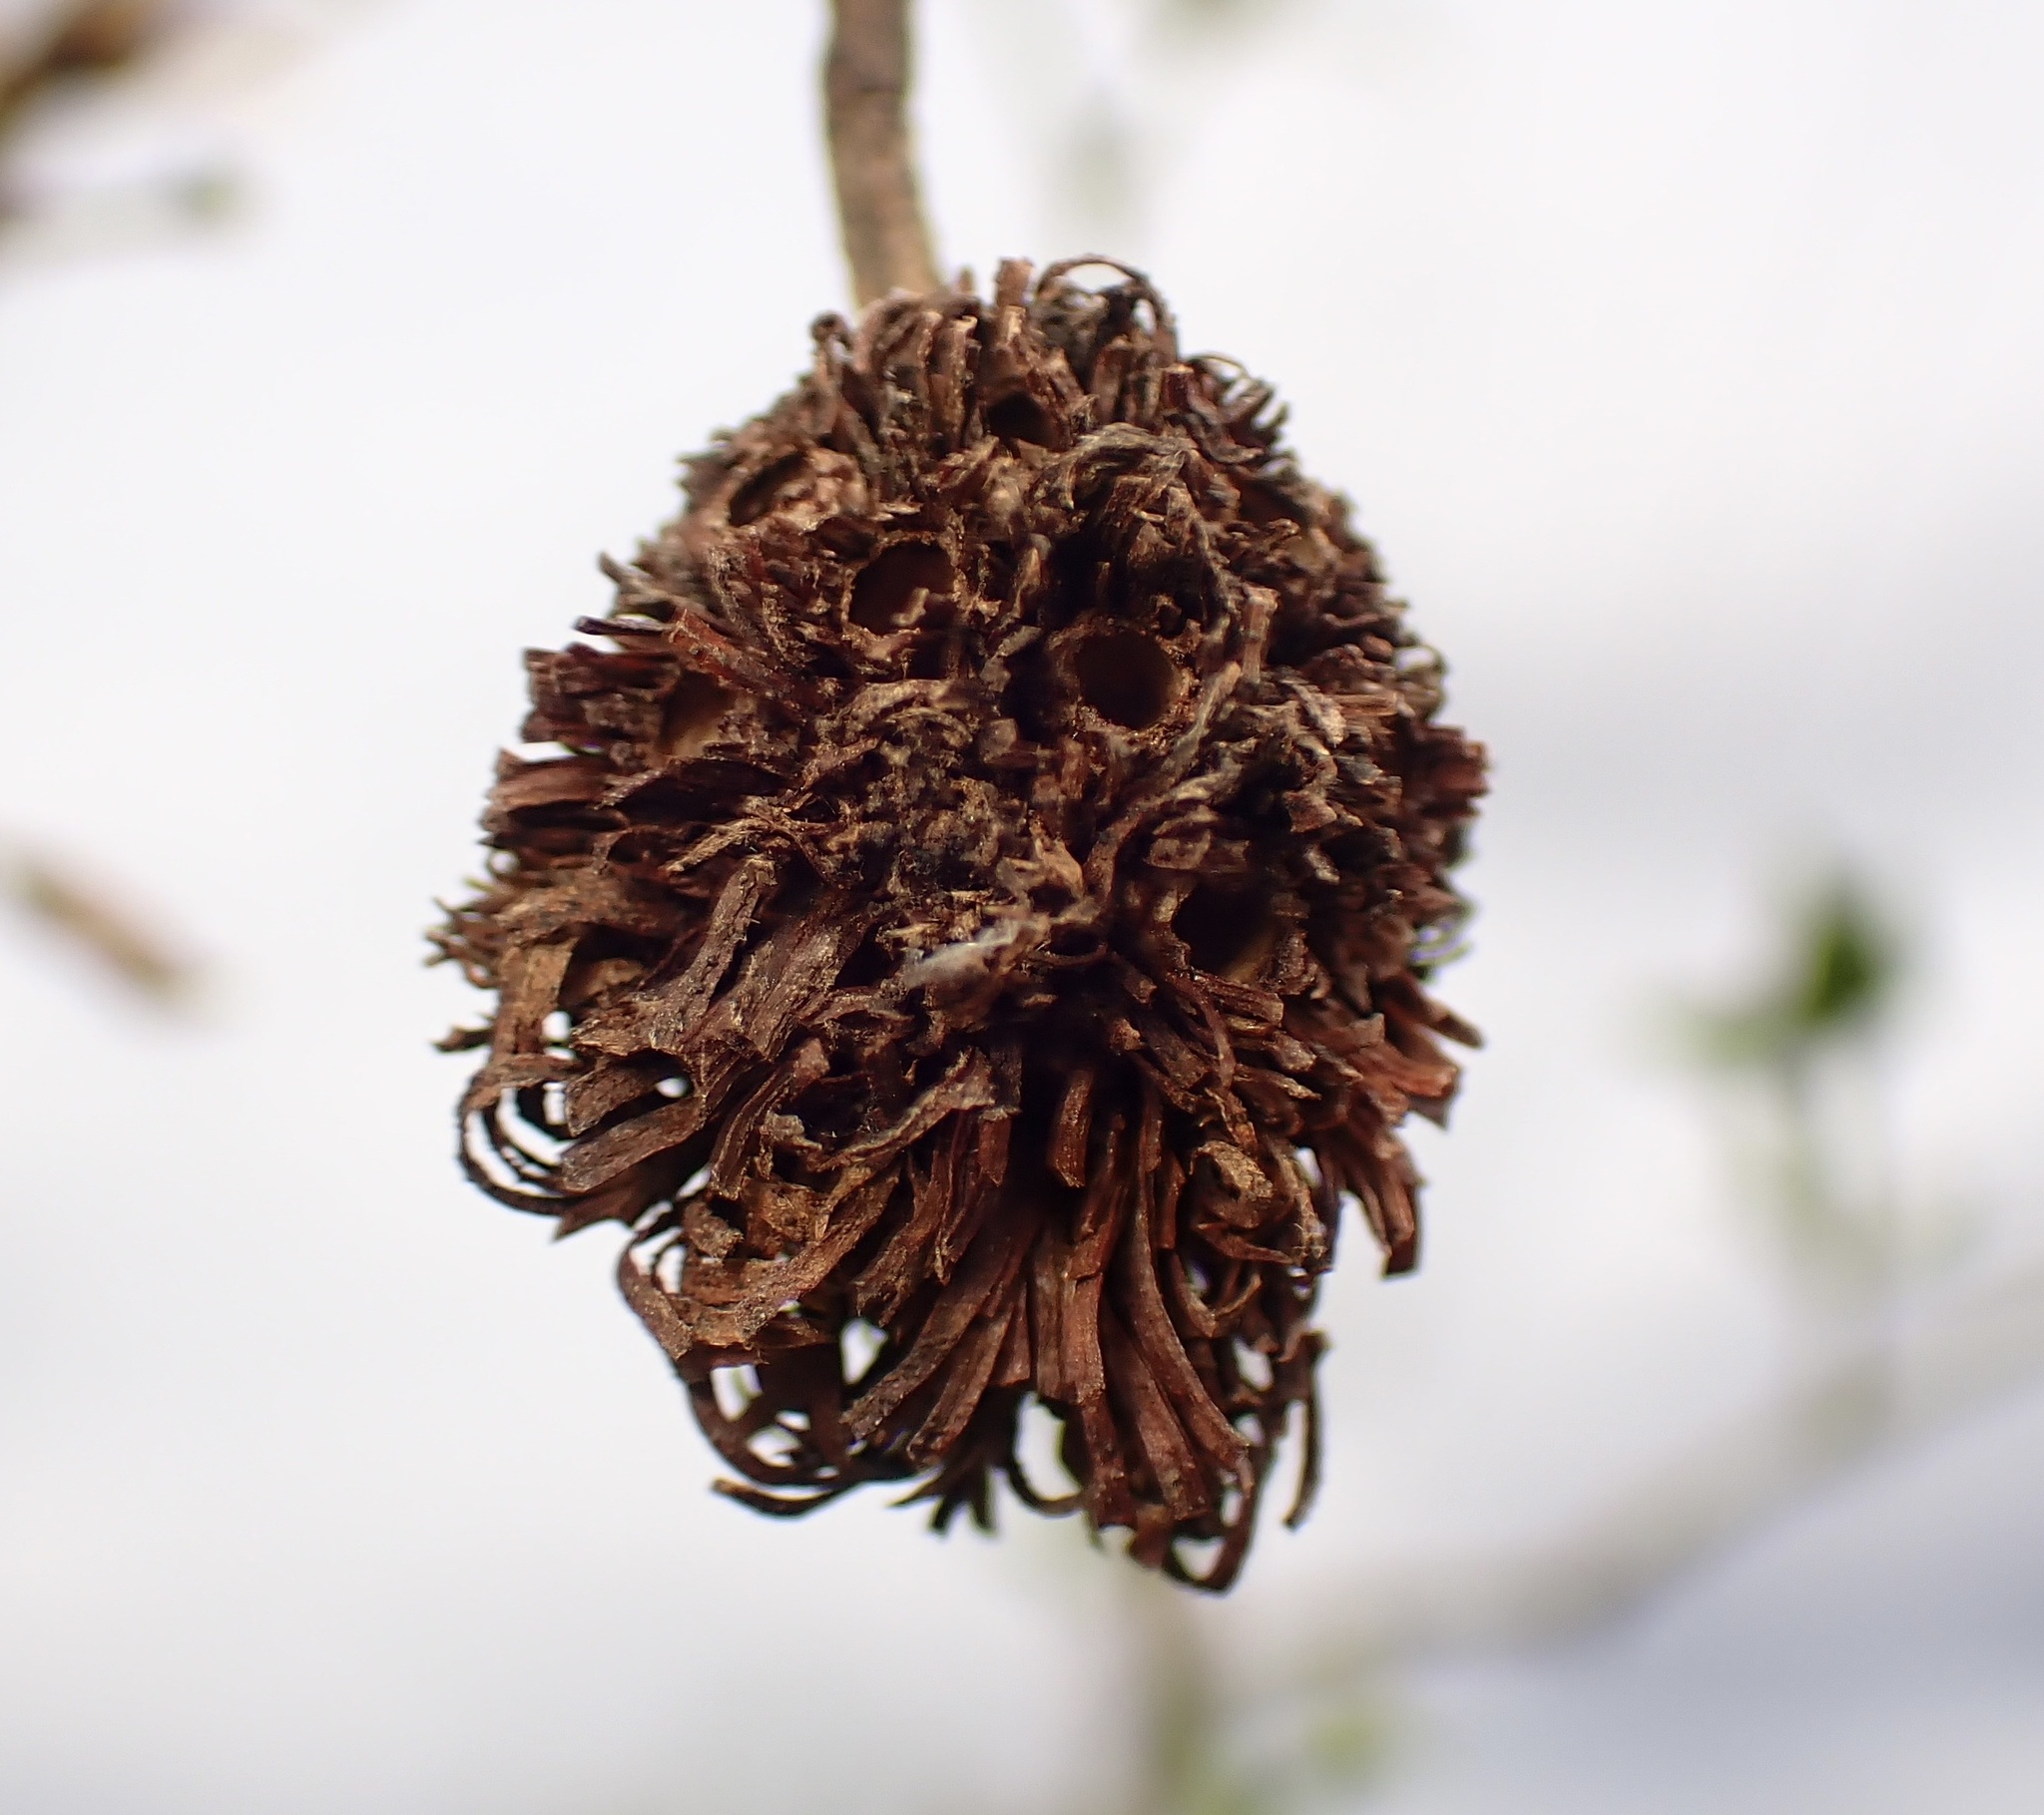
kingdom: Animalia
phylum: Arthropoda
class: Insecta
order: Diptera
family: Cecidomyiidae
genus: Asphondylia
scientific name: Asphondylia auripila
